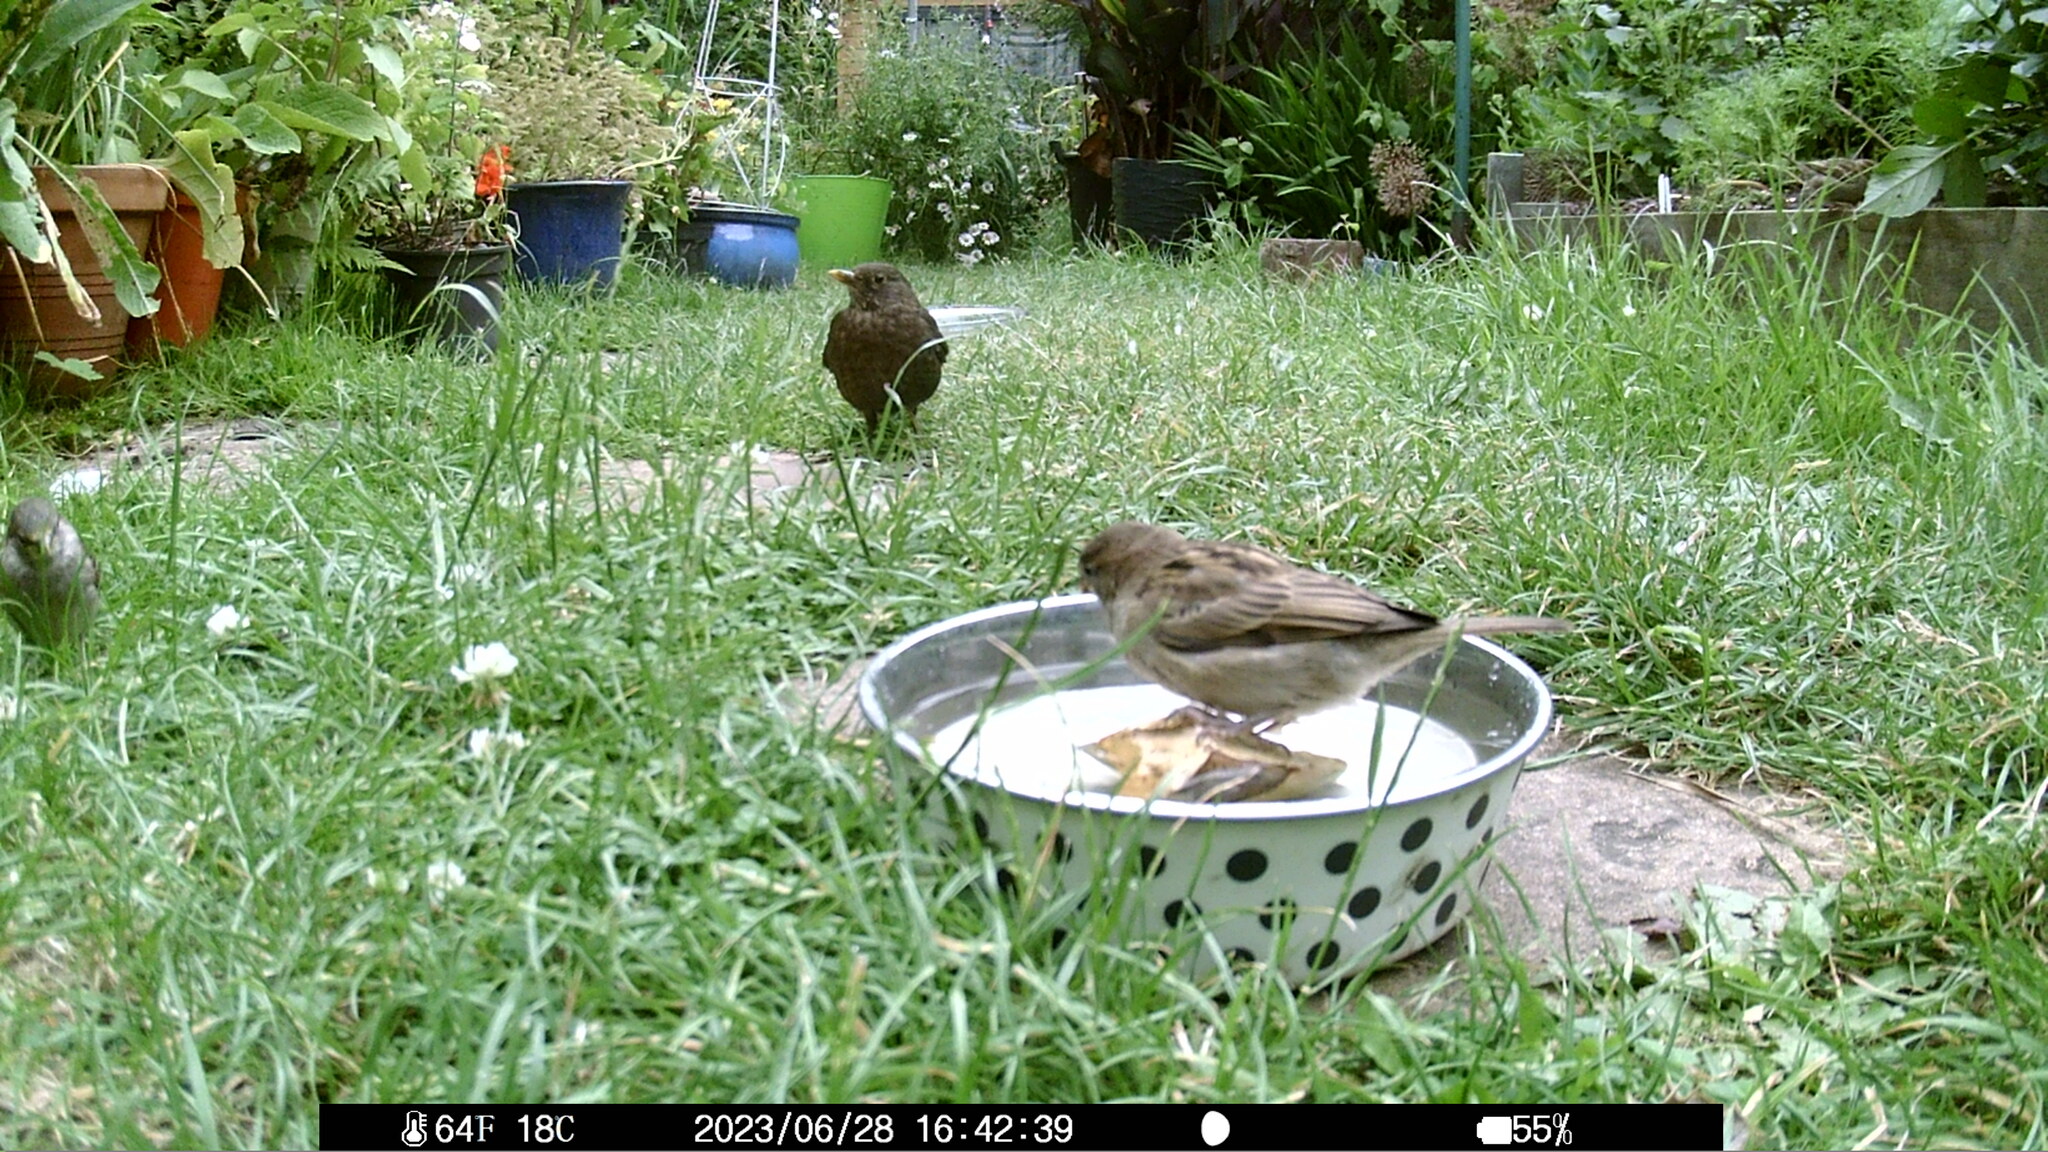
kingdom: Animalia
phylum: Chordata
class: Aves
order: Passeriformes
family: Passeridae
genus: Passer
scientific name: Passer domesticus
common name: House sparrow
